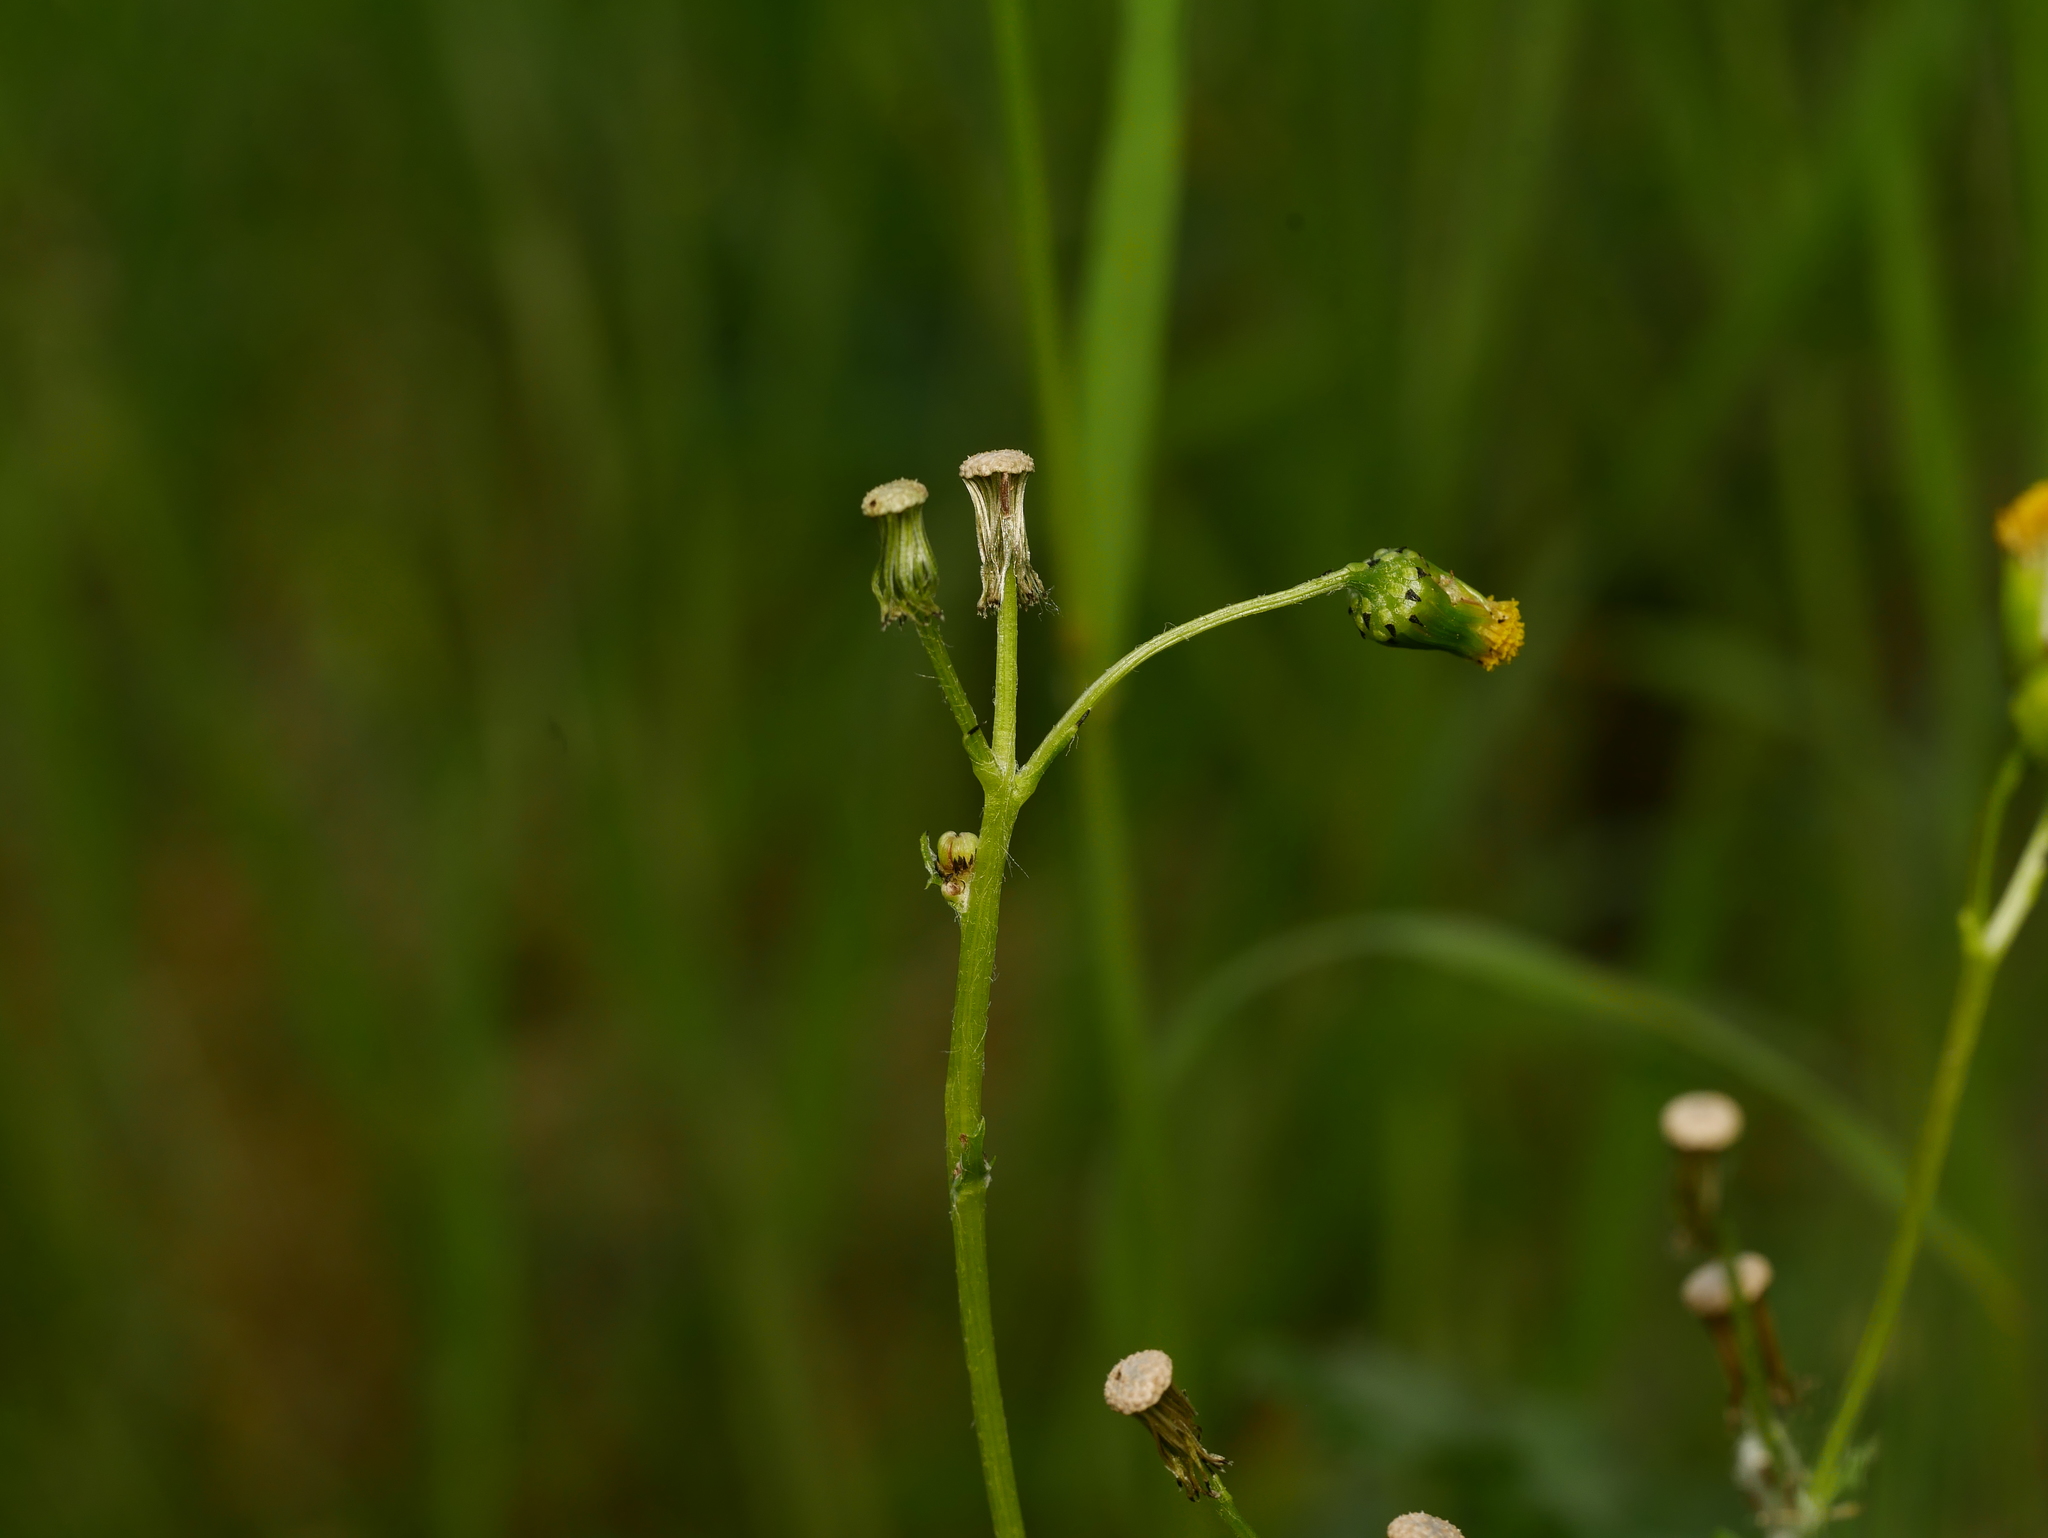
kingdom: Plantae
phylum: Tracheophyta
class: Magnoliopsida
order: Asterales
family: Asteraceae
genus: Senecio
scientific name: Senecio vulgaris
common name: Old-man-in-the-spring
